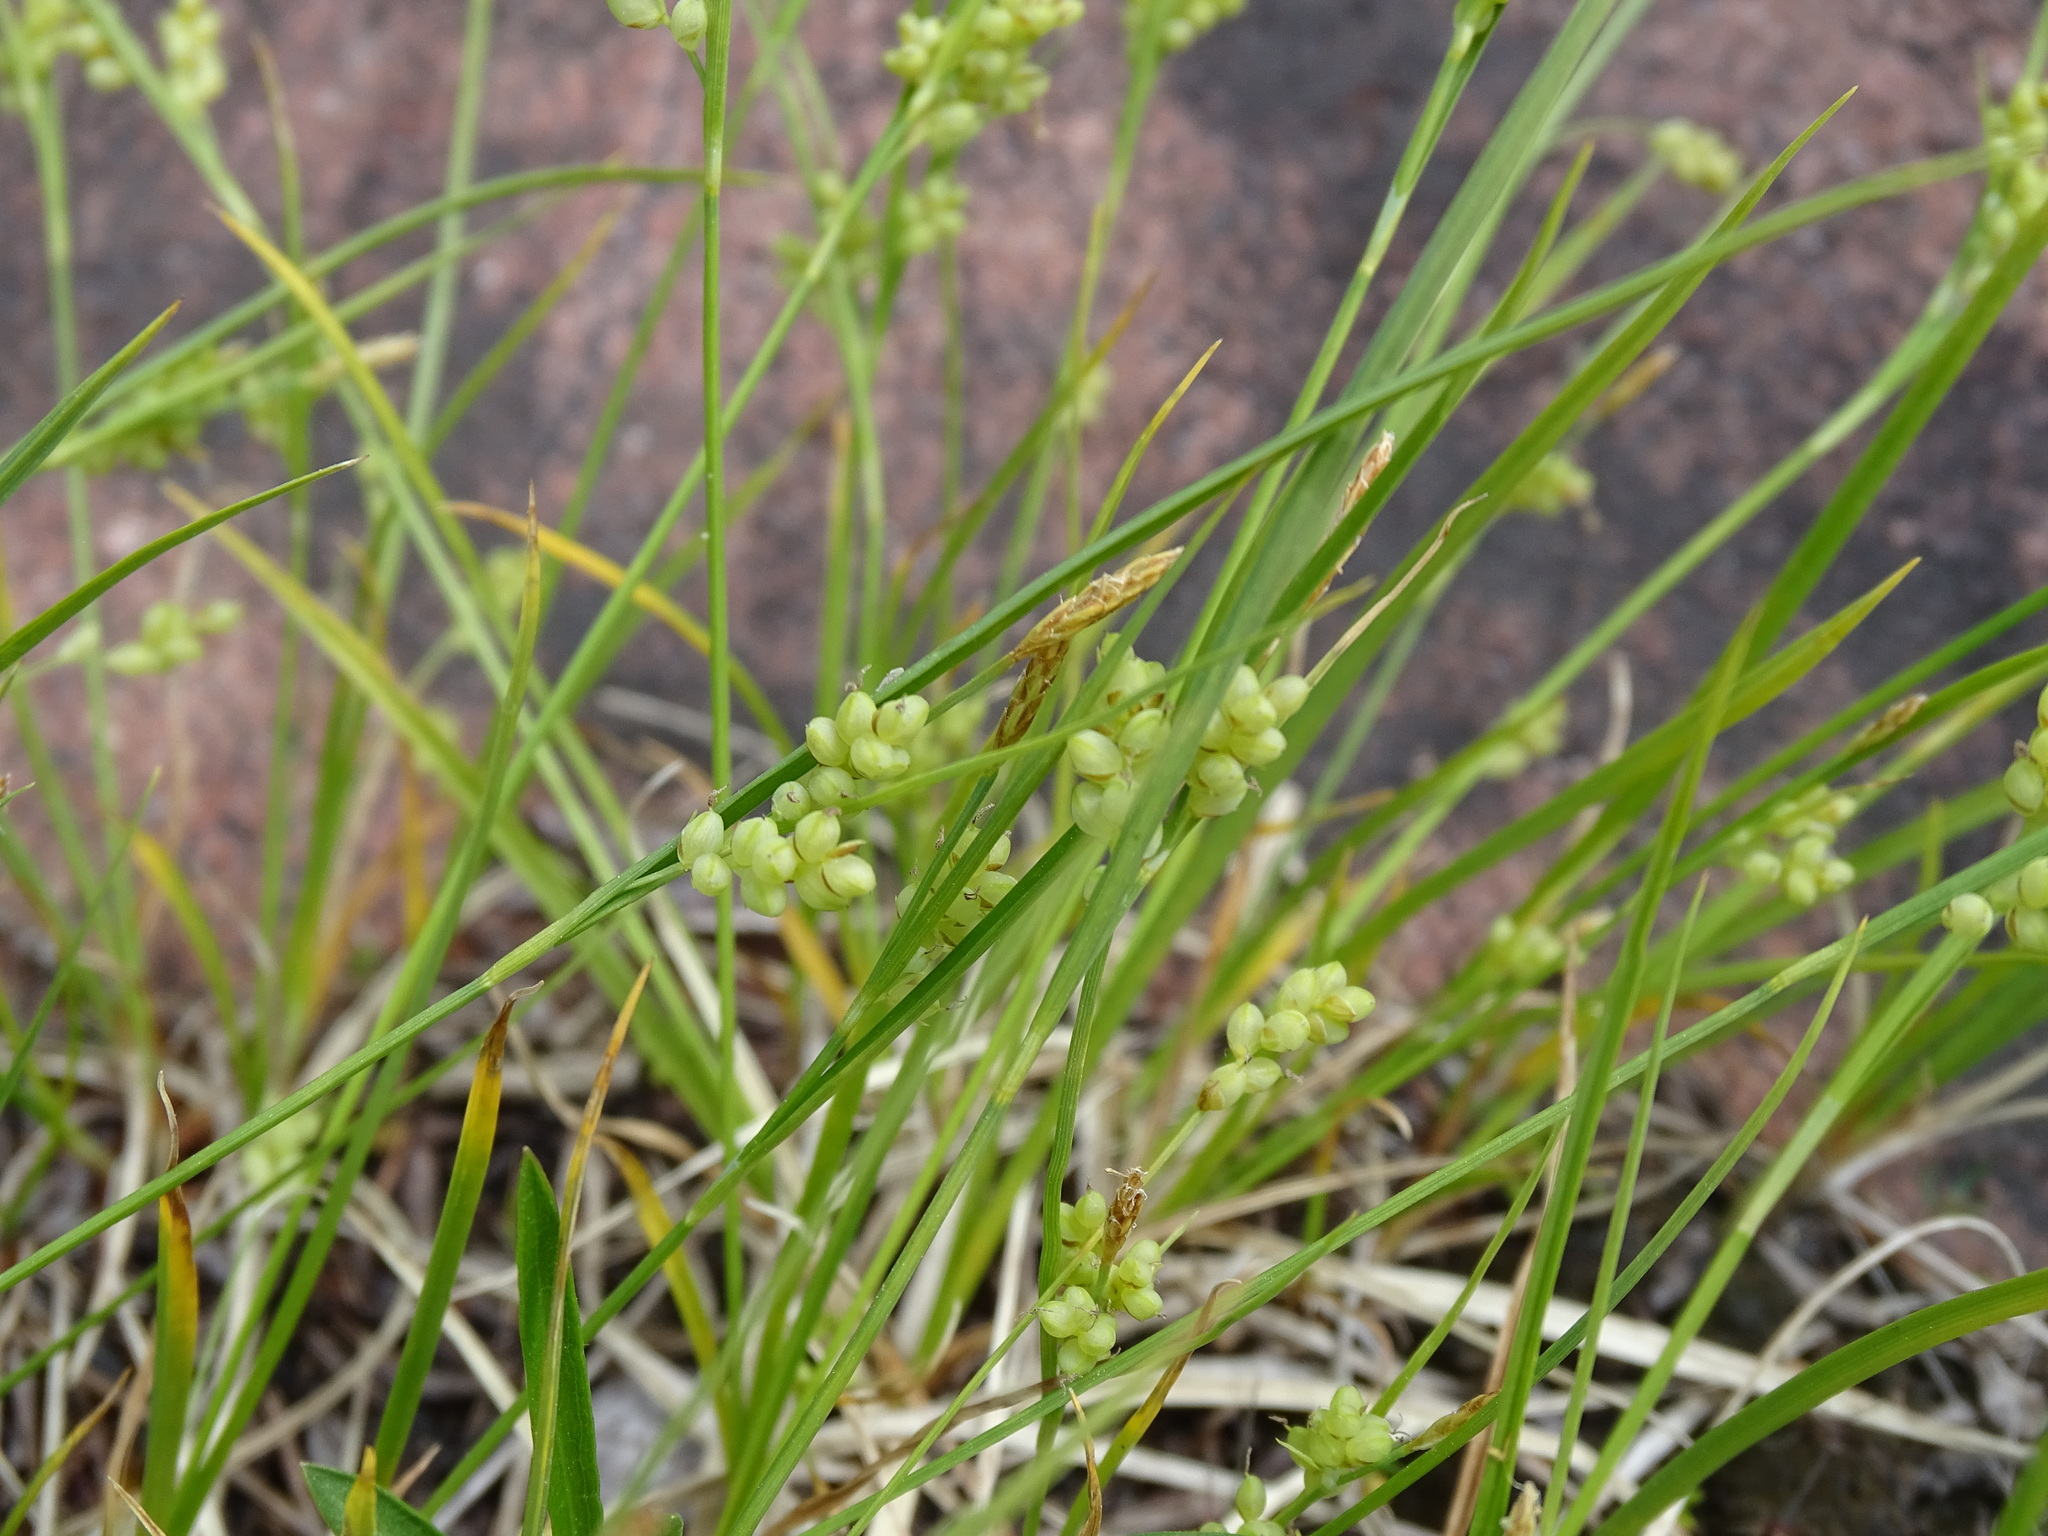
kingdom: Plantae
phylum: Tracheophyta
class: Liliopsida
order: Poales
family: Cyperaceae
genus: Carex
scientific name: Carex aurea
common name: Golden sedge
